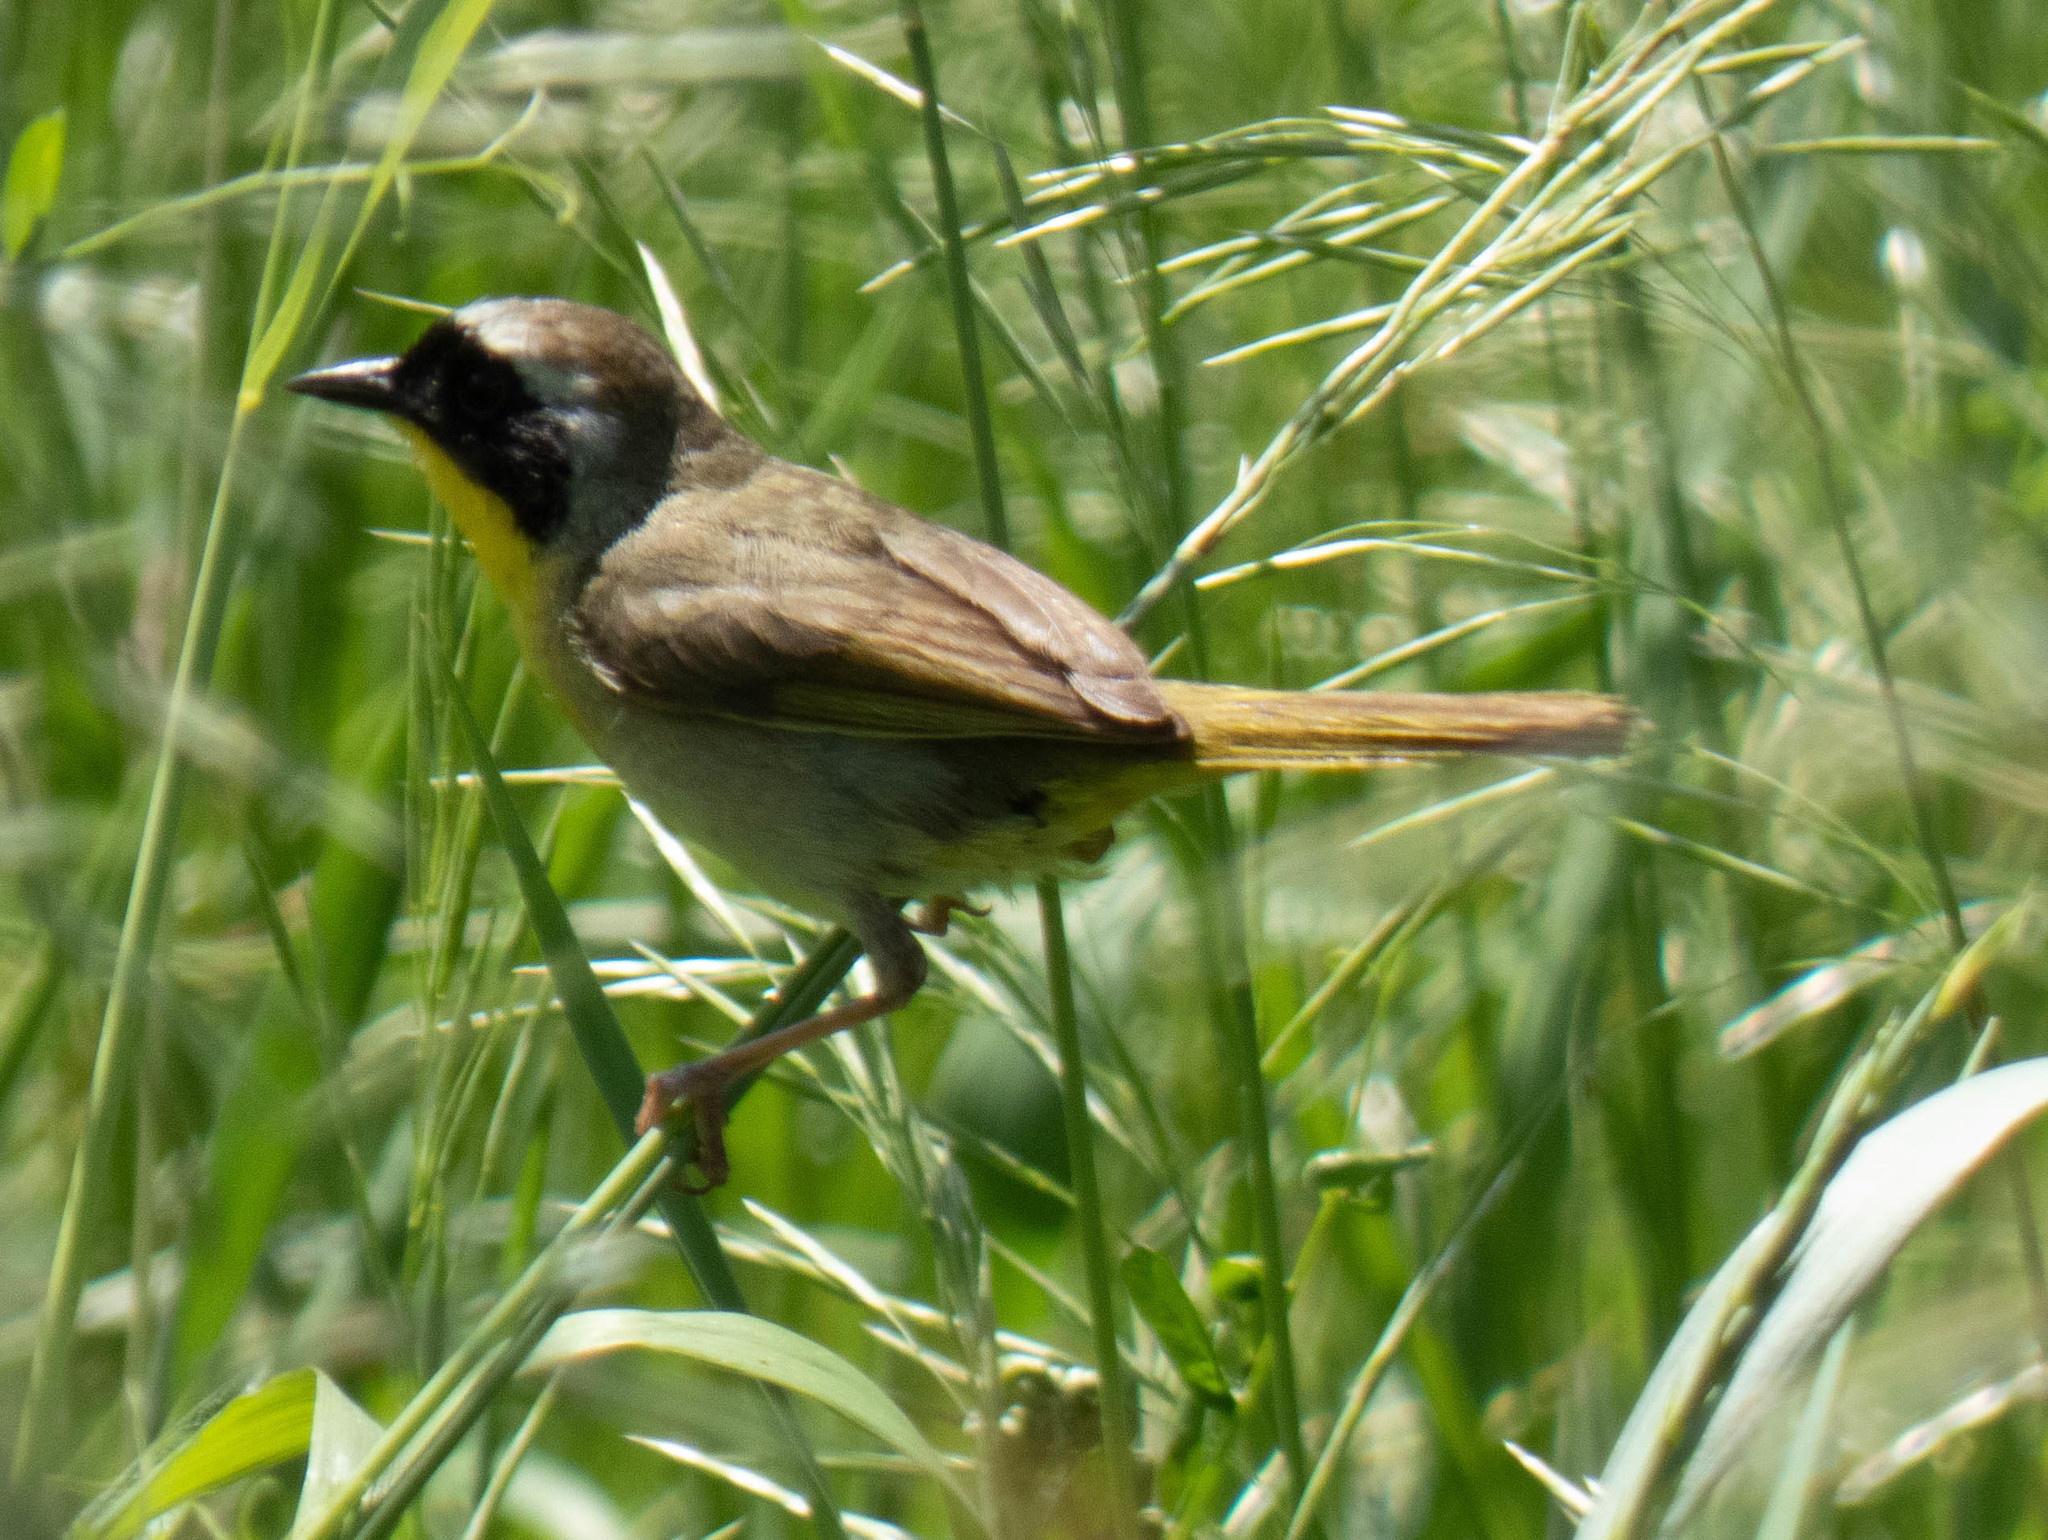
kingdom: Animalia
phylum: Chordata
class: Aves
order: Passeriformes
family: Parulidae
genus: Geothlypis
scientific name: Geothlypis trichas
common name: Common yellowthroat
